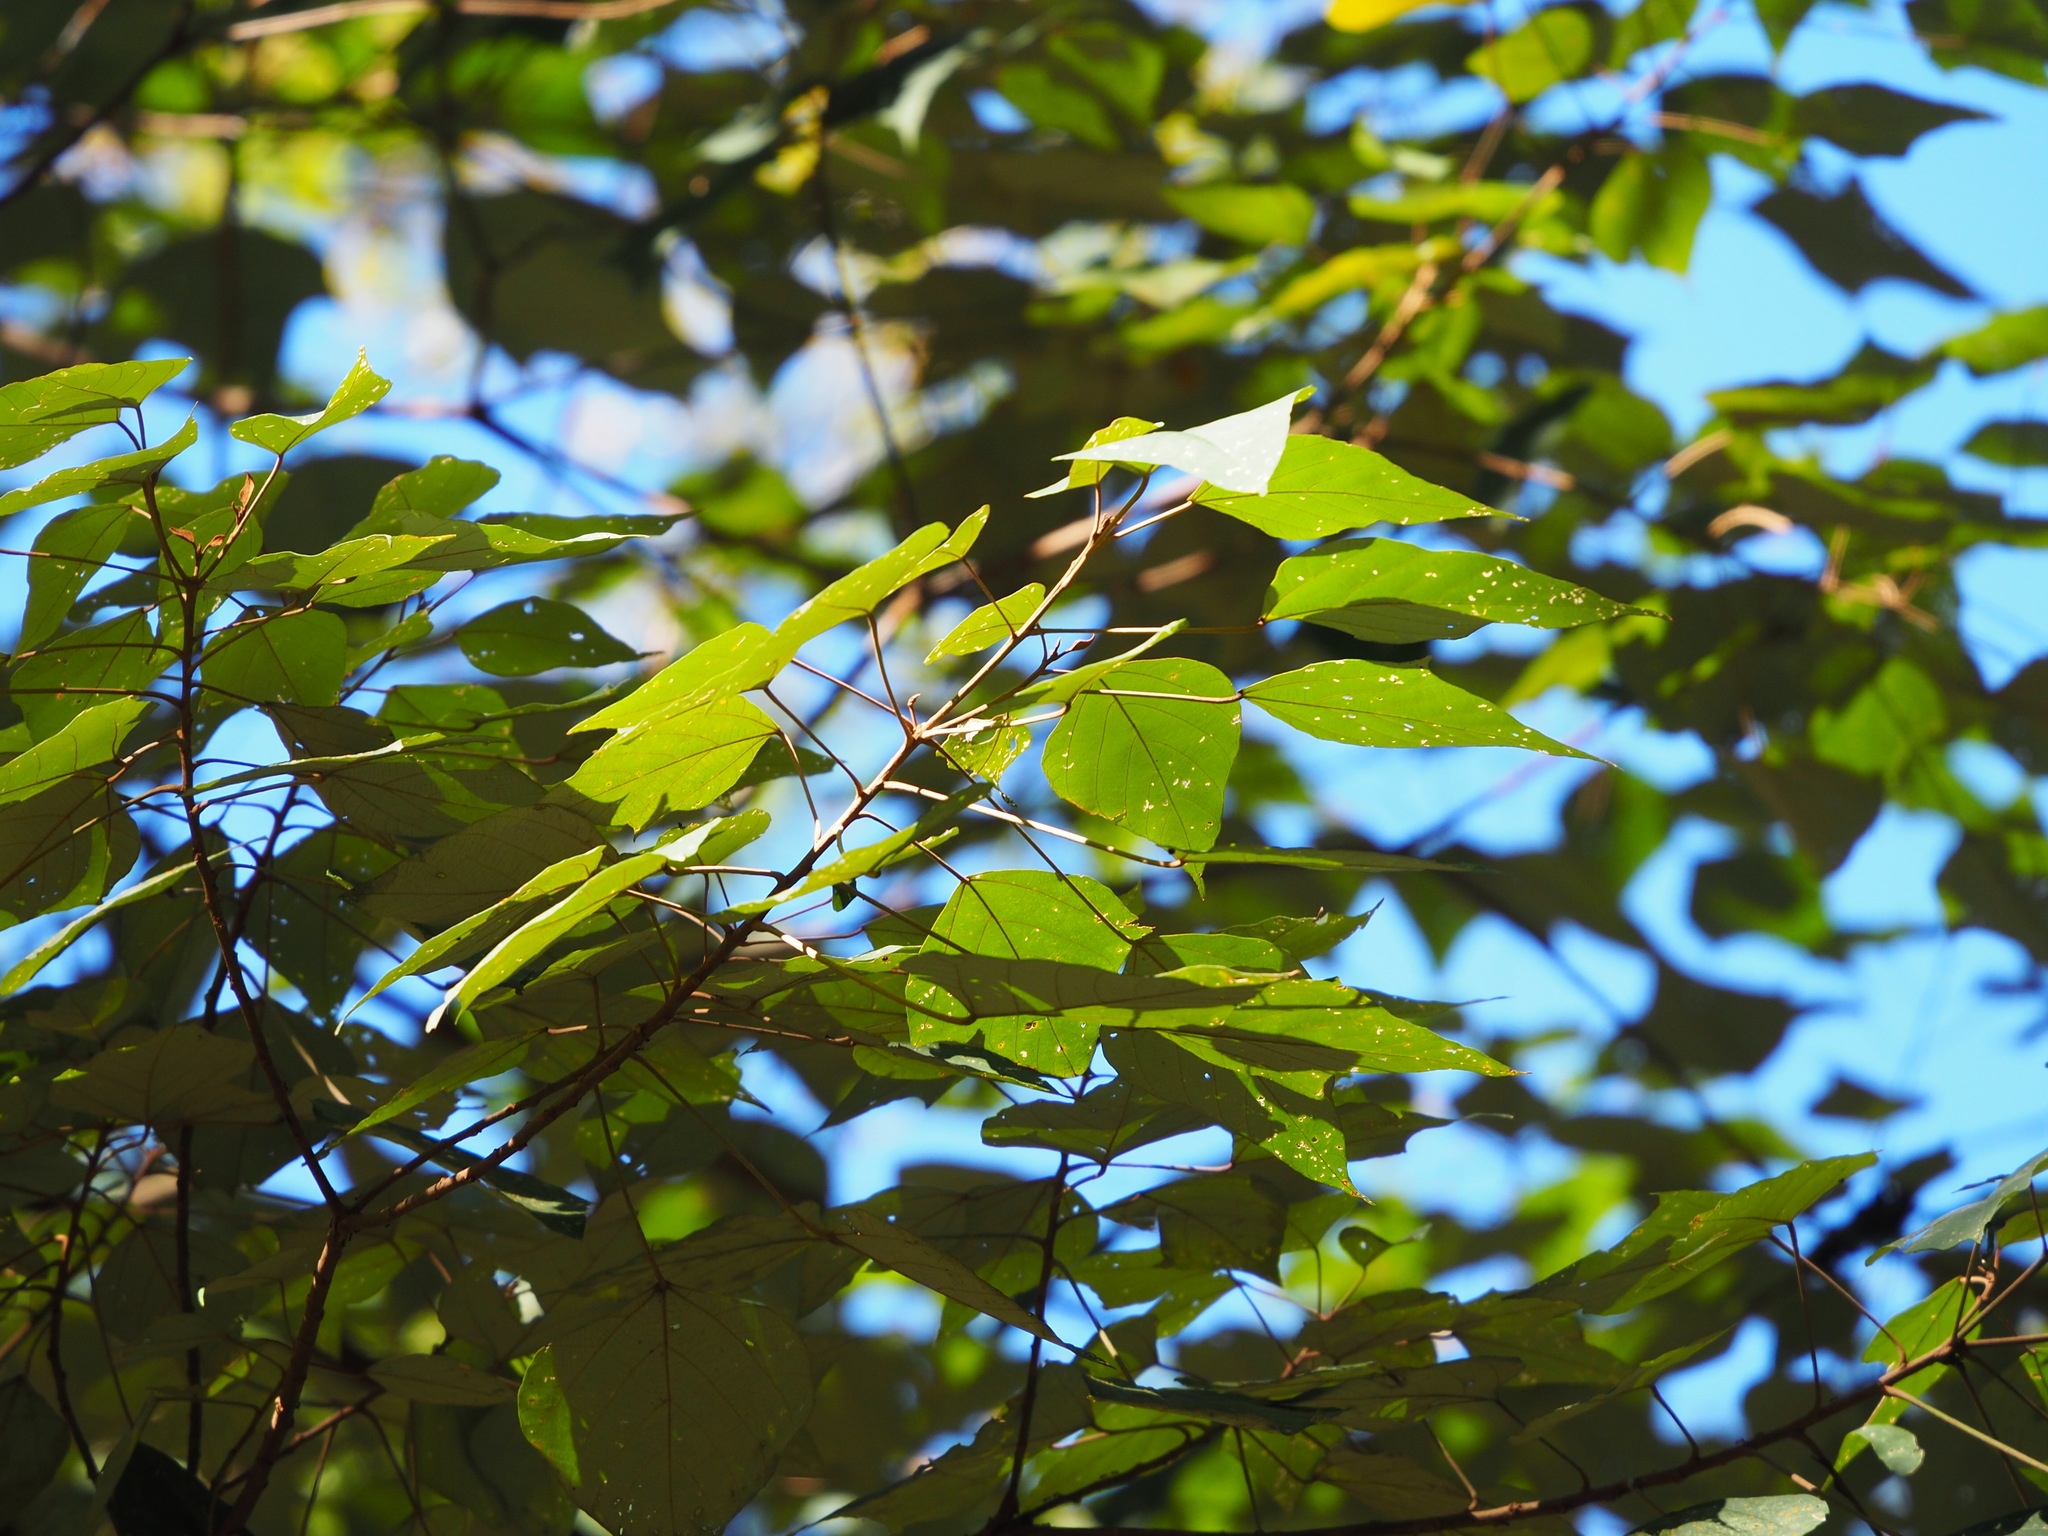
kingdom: Plantae
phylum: Tracheophyta
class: Magnoliopsida
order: Malpighiales
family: Euphorbiaceae
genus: Mallotus
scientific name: Mallotus paniculatus
